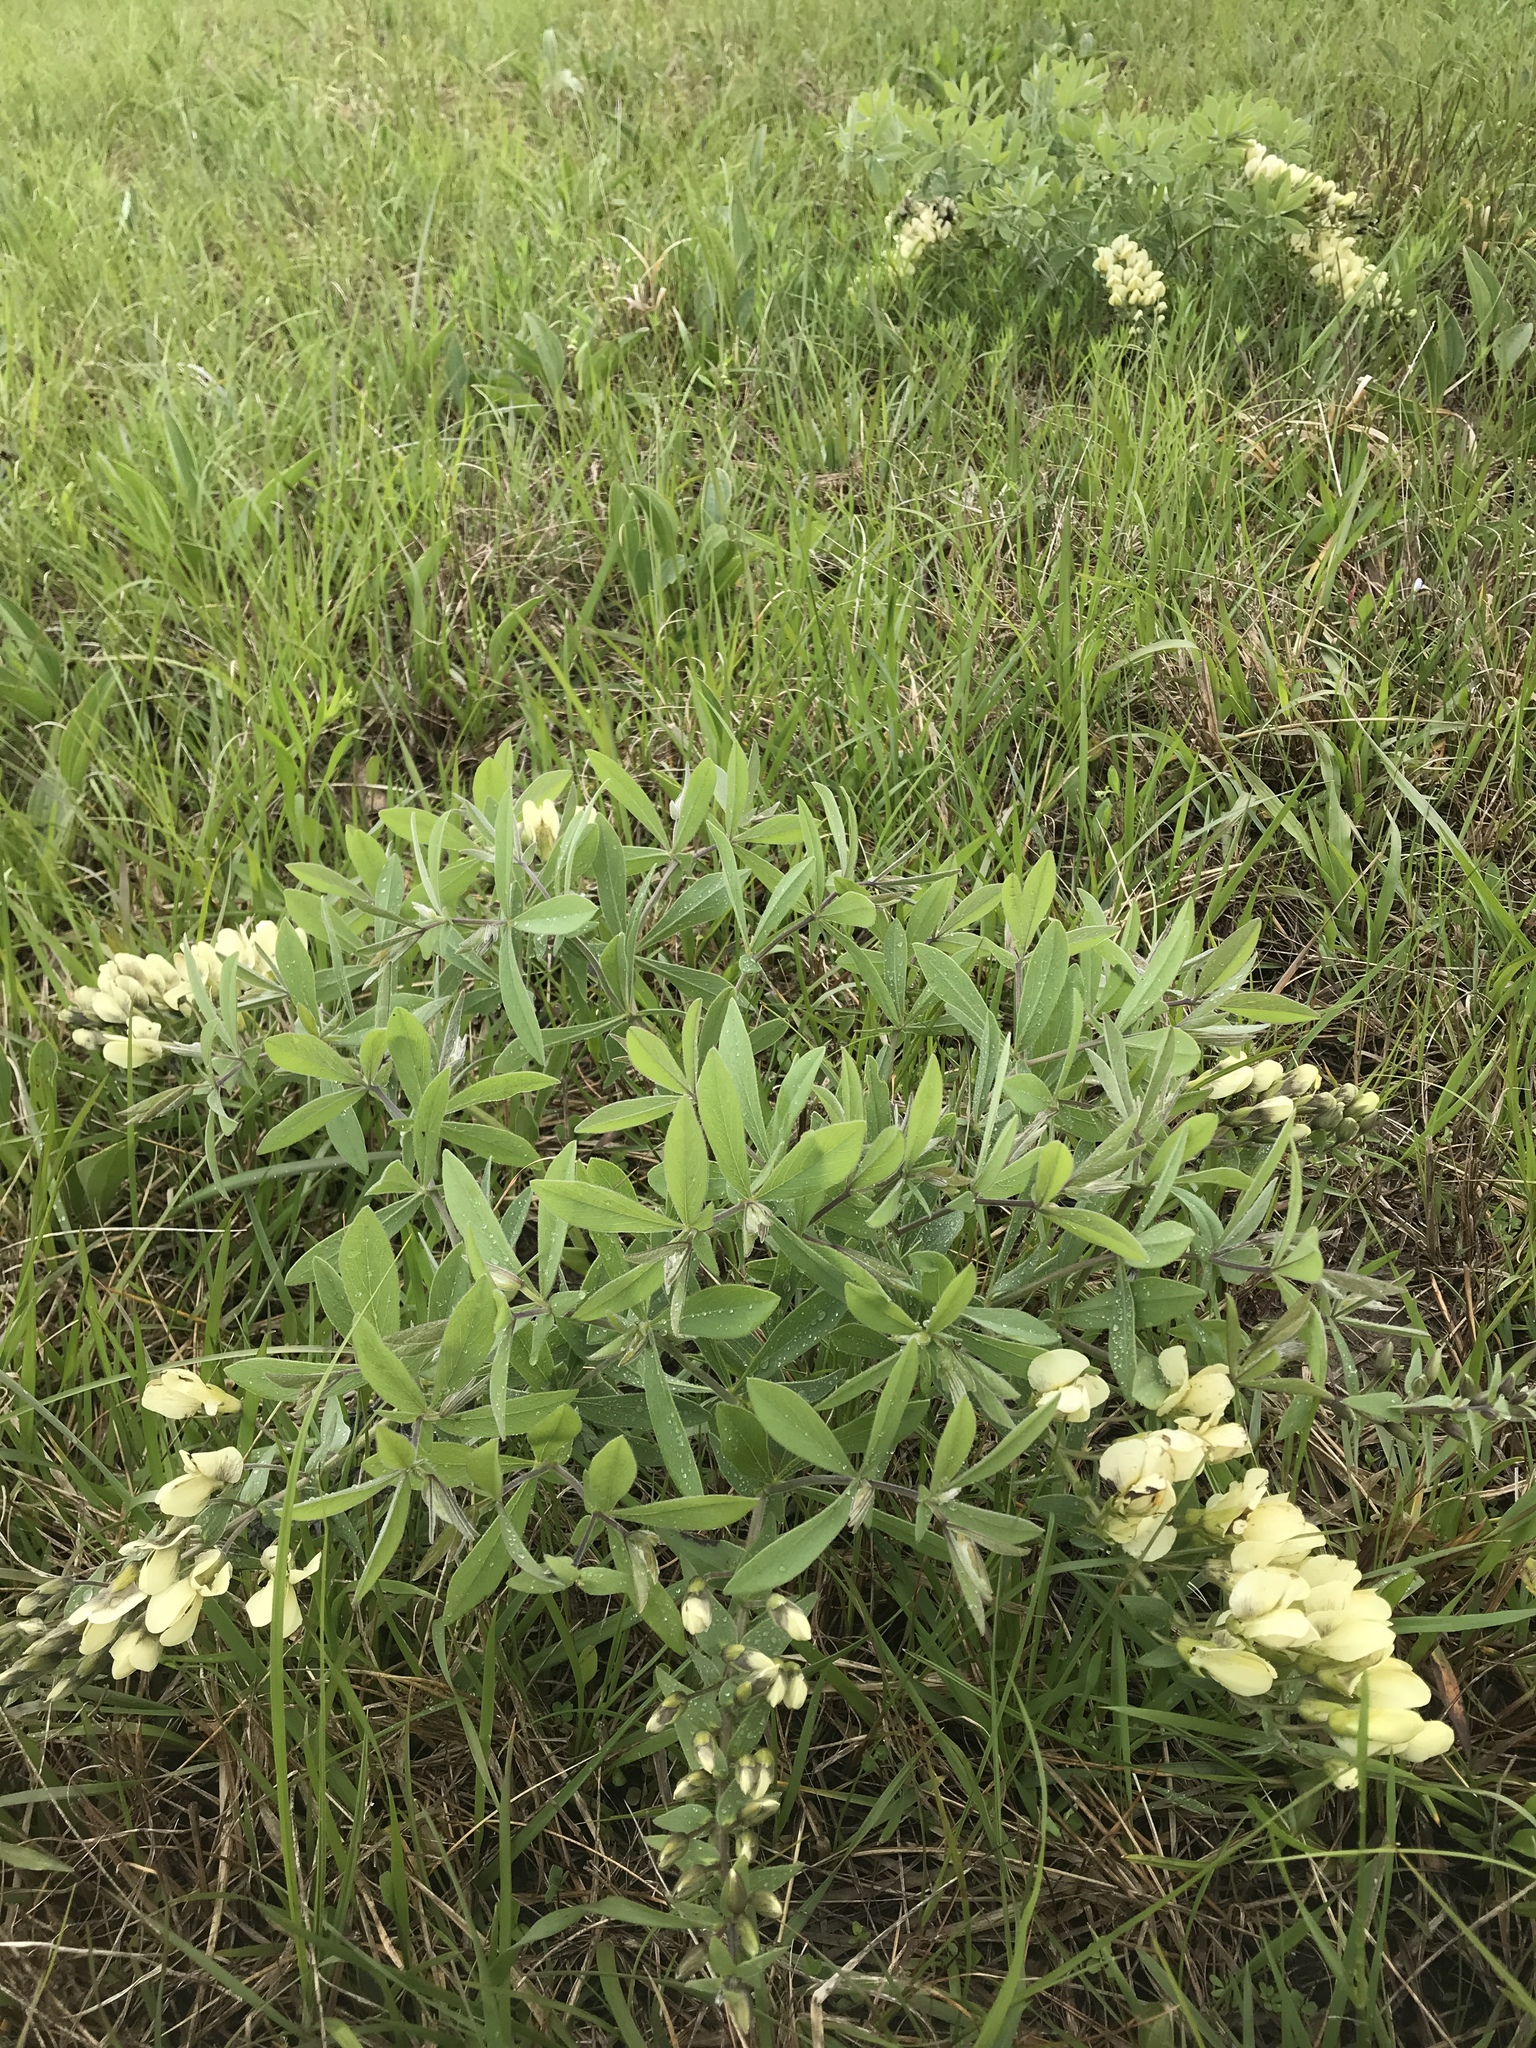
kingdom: Plantae
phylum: Tracheophyta
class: Magnoliopsida
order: Fabales
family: Fabaceae
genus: Baptisia
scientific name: Baptisia bracteata
